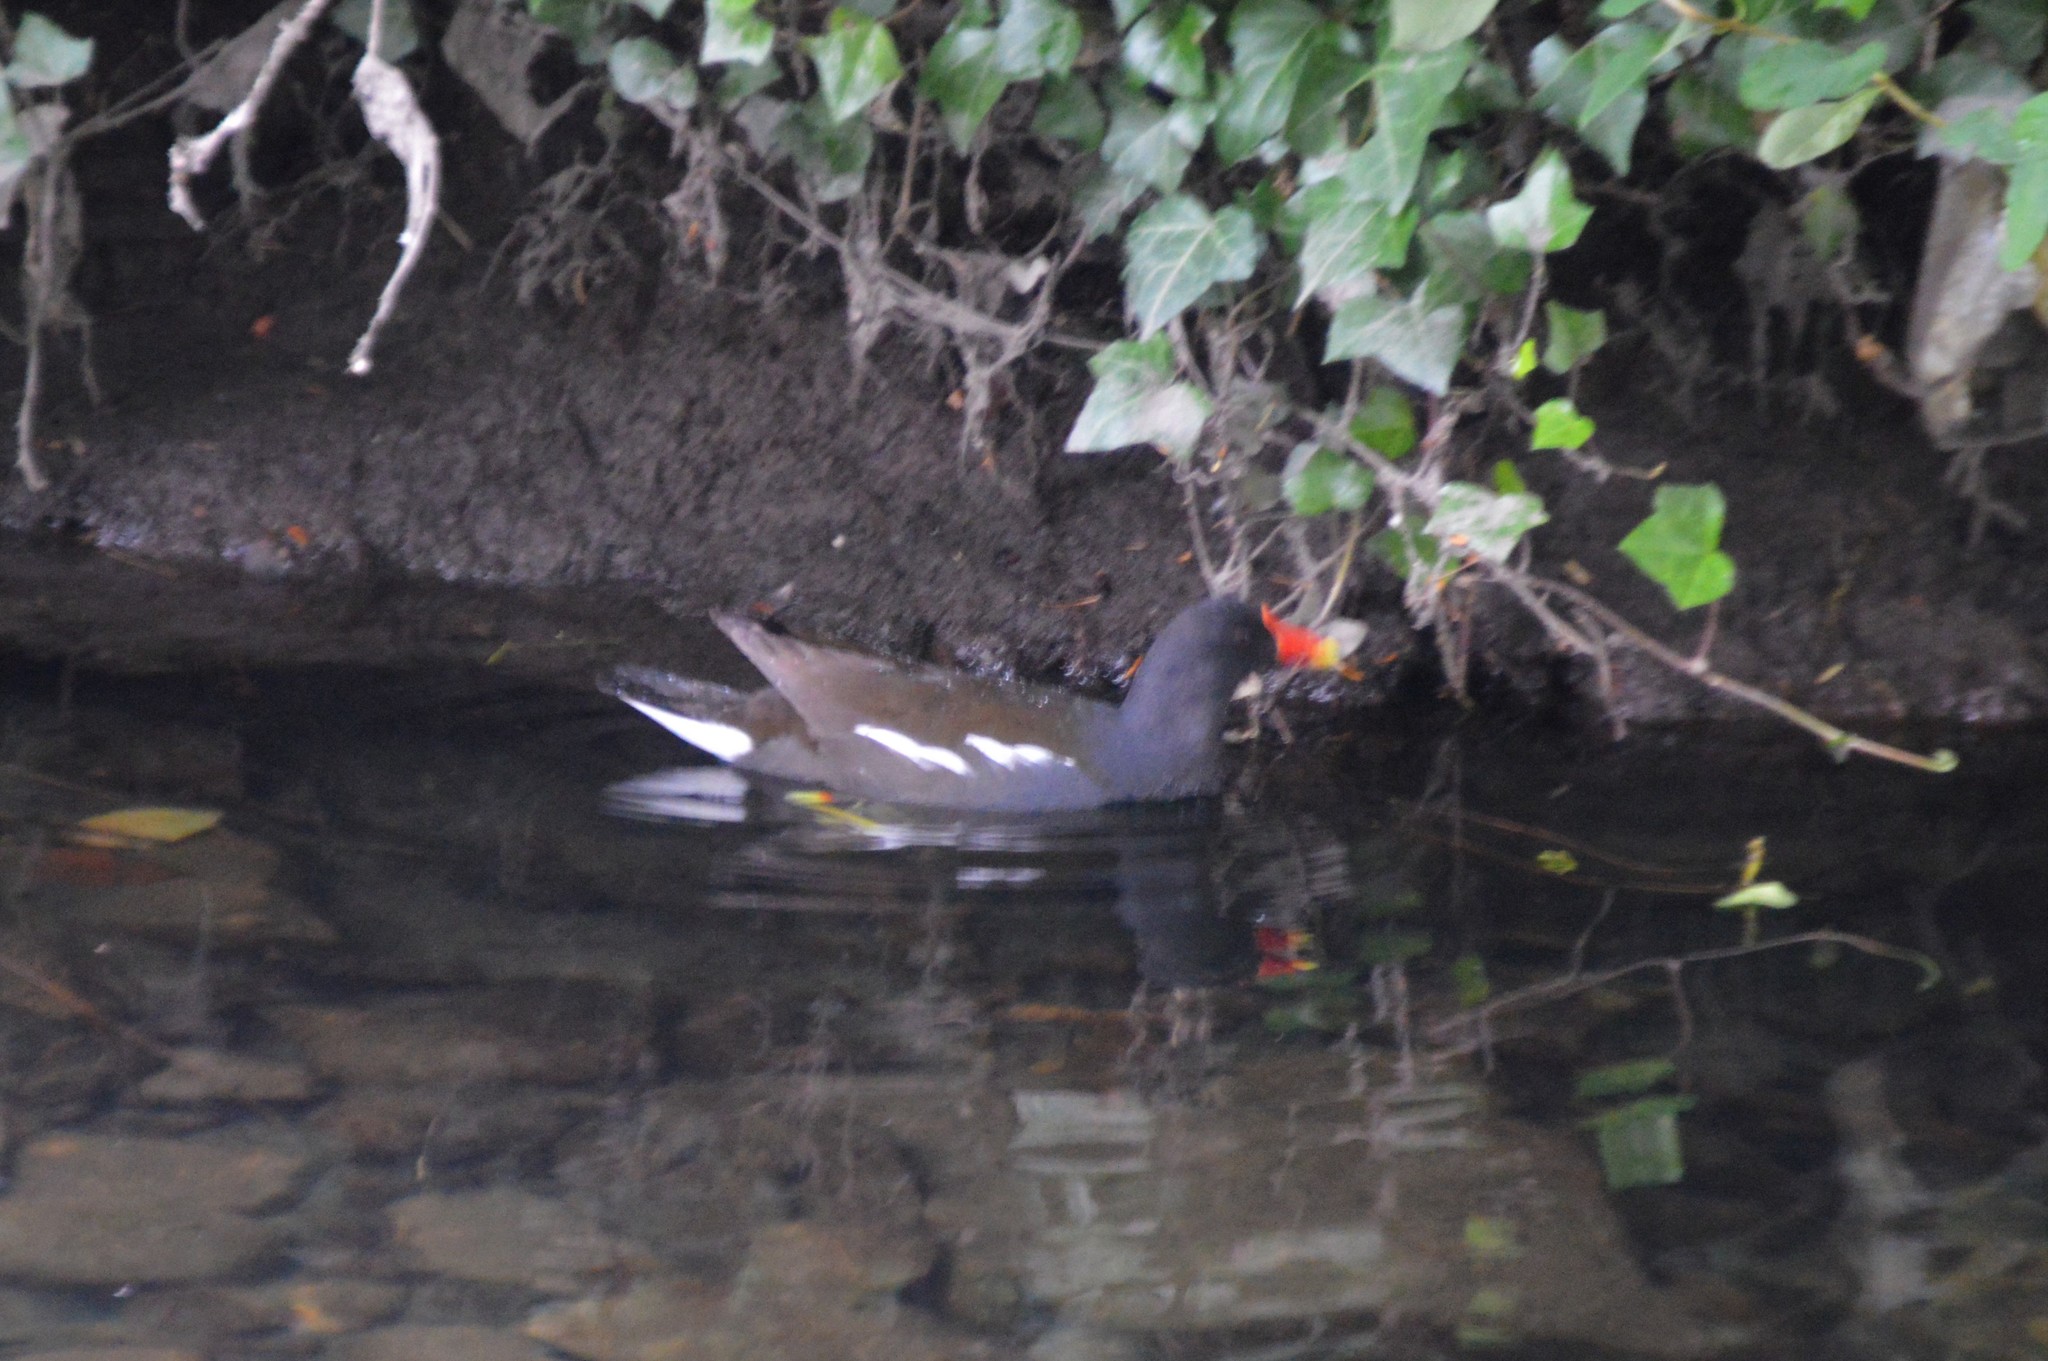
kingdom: Animalia
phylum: Chordata
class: Aves
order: Gruiformes
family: Rallidae
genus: Gallinula
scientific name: Gallinula chloropus
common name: Common moorhen
